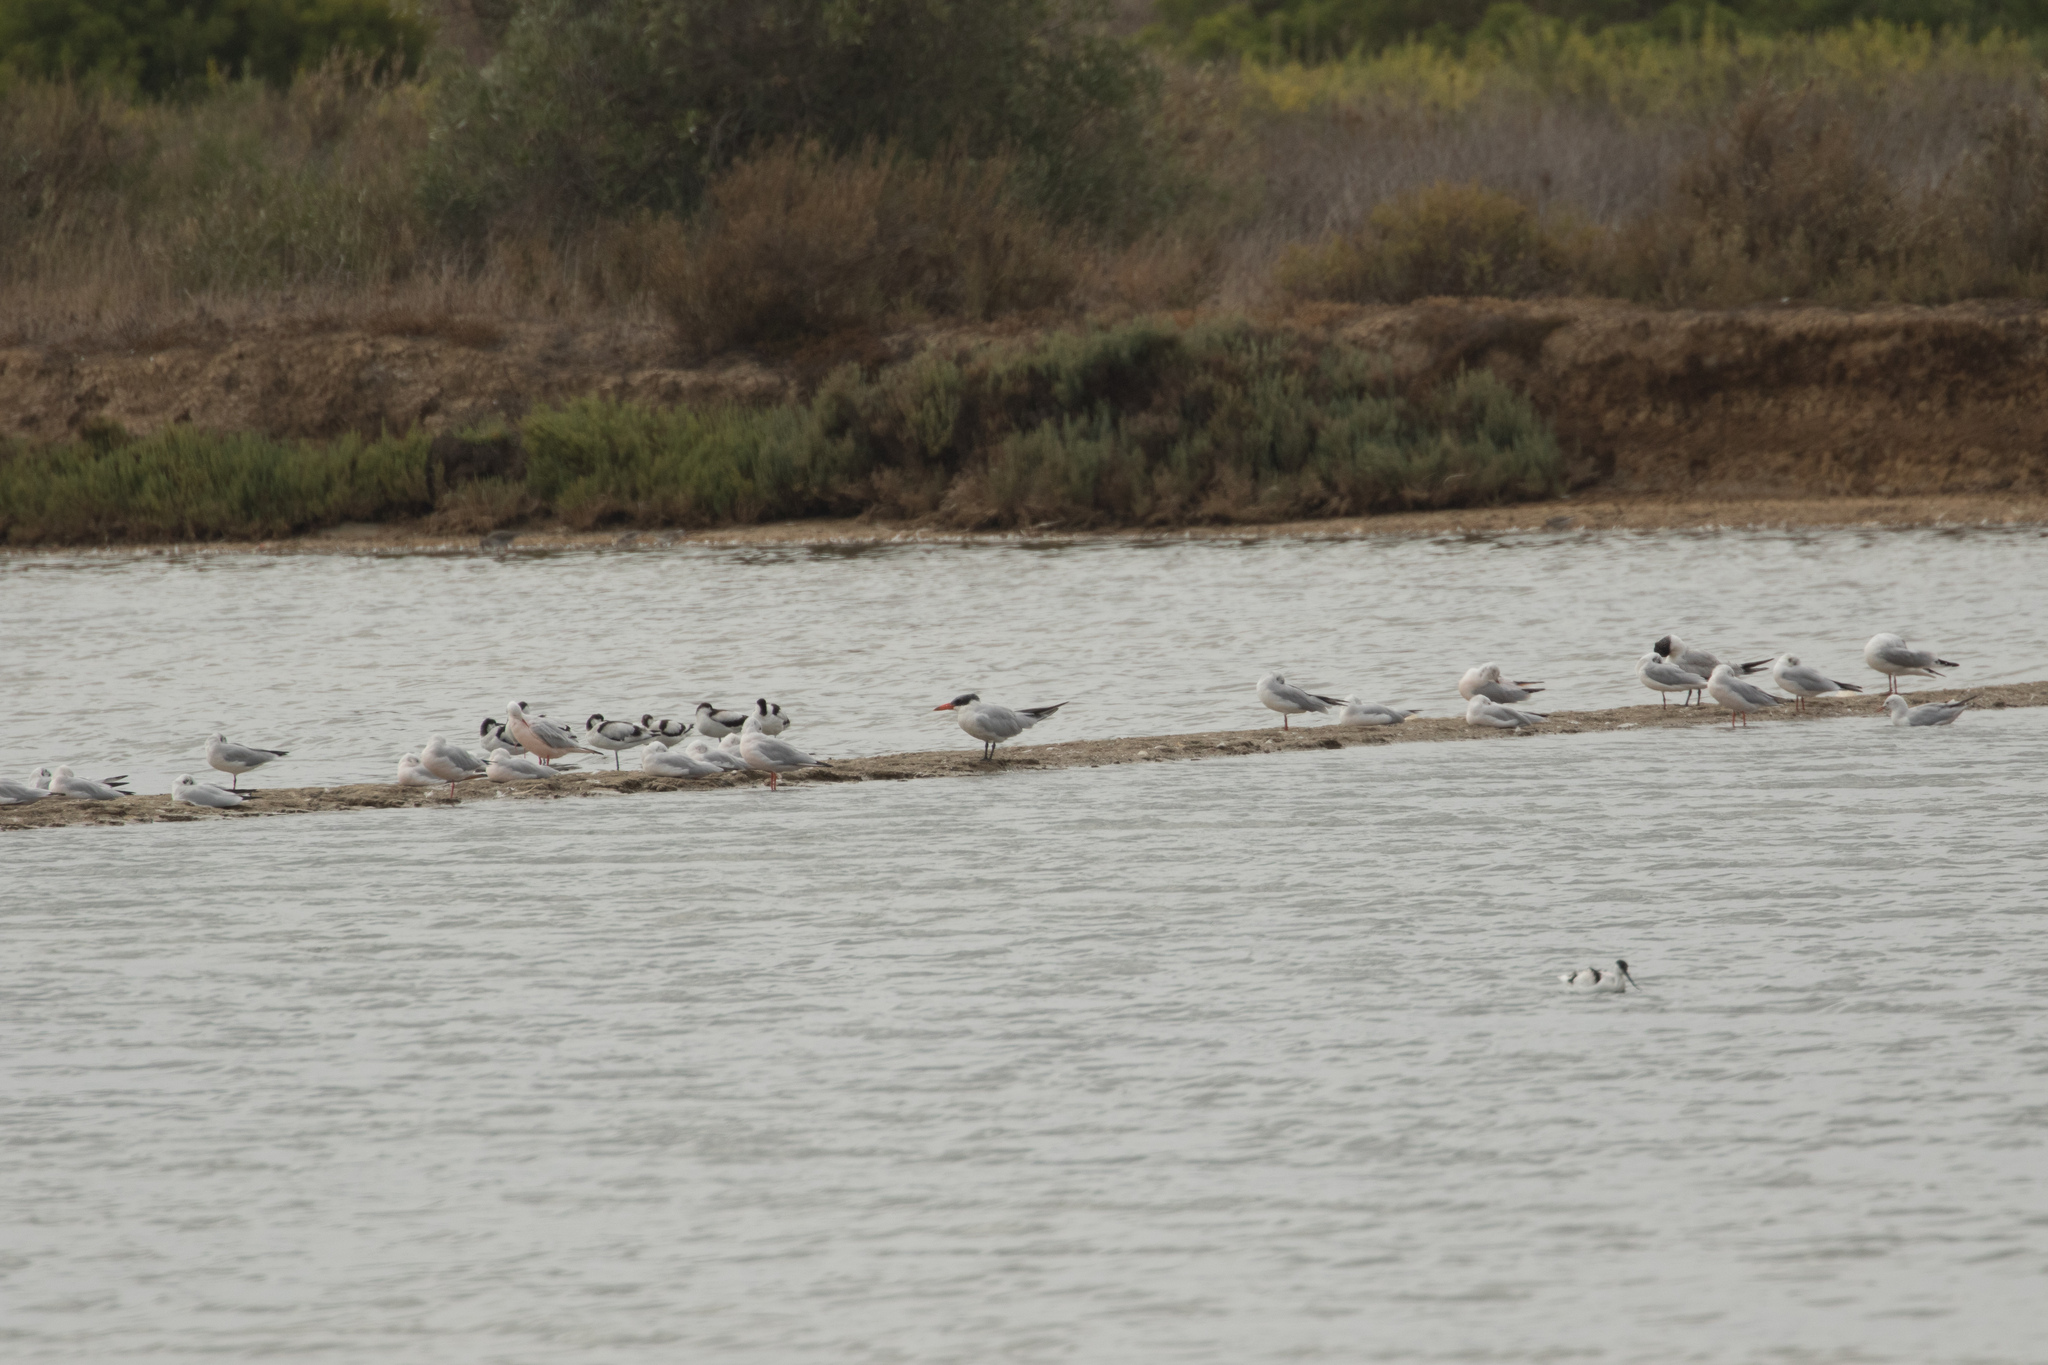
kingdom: Animalia
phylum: Chordata
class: Aves
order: Charadriiformes
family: Laridae
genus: Hydroprogne
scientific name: Hydroprogne caspia
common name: Caspian tern
